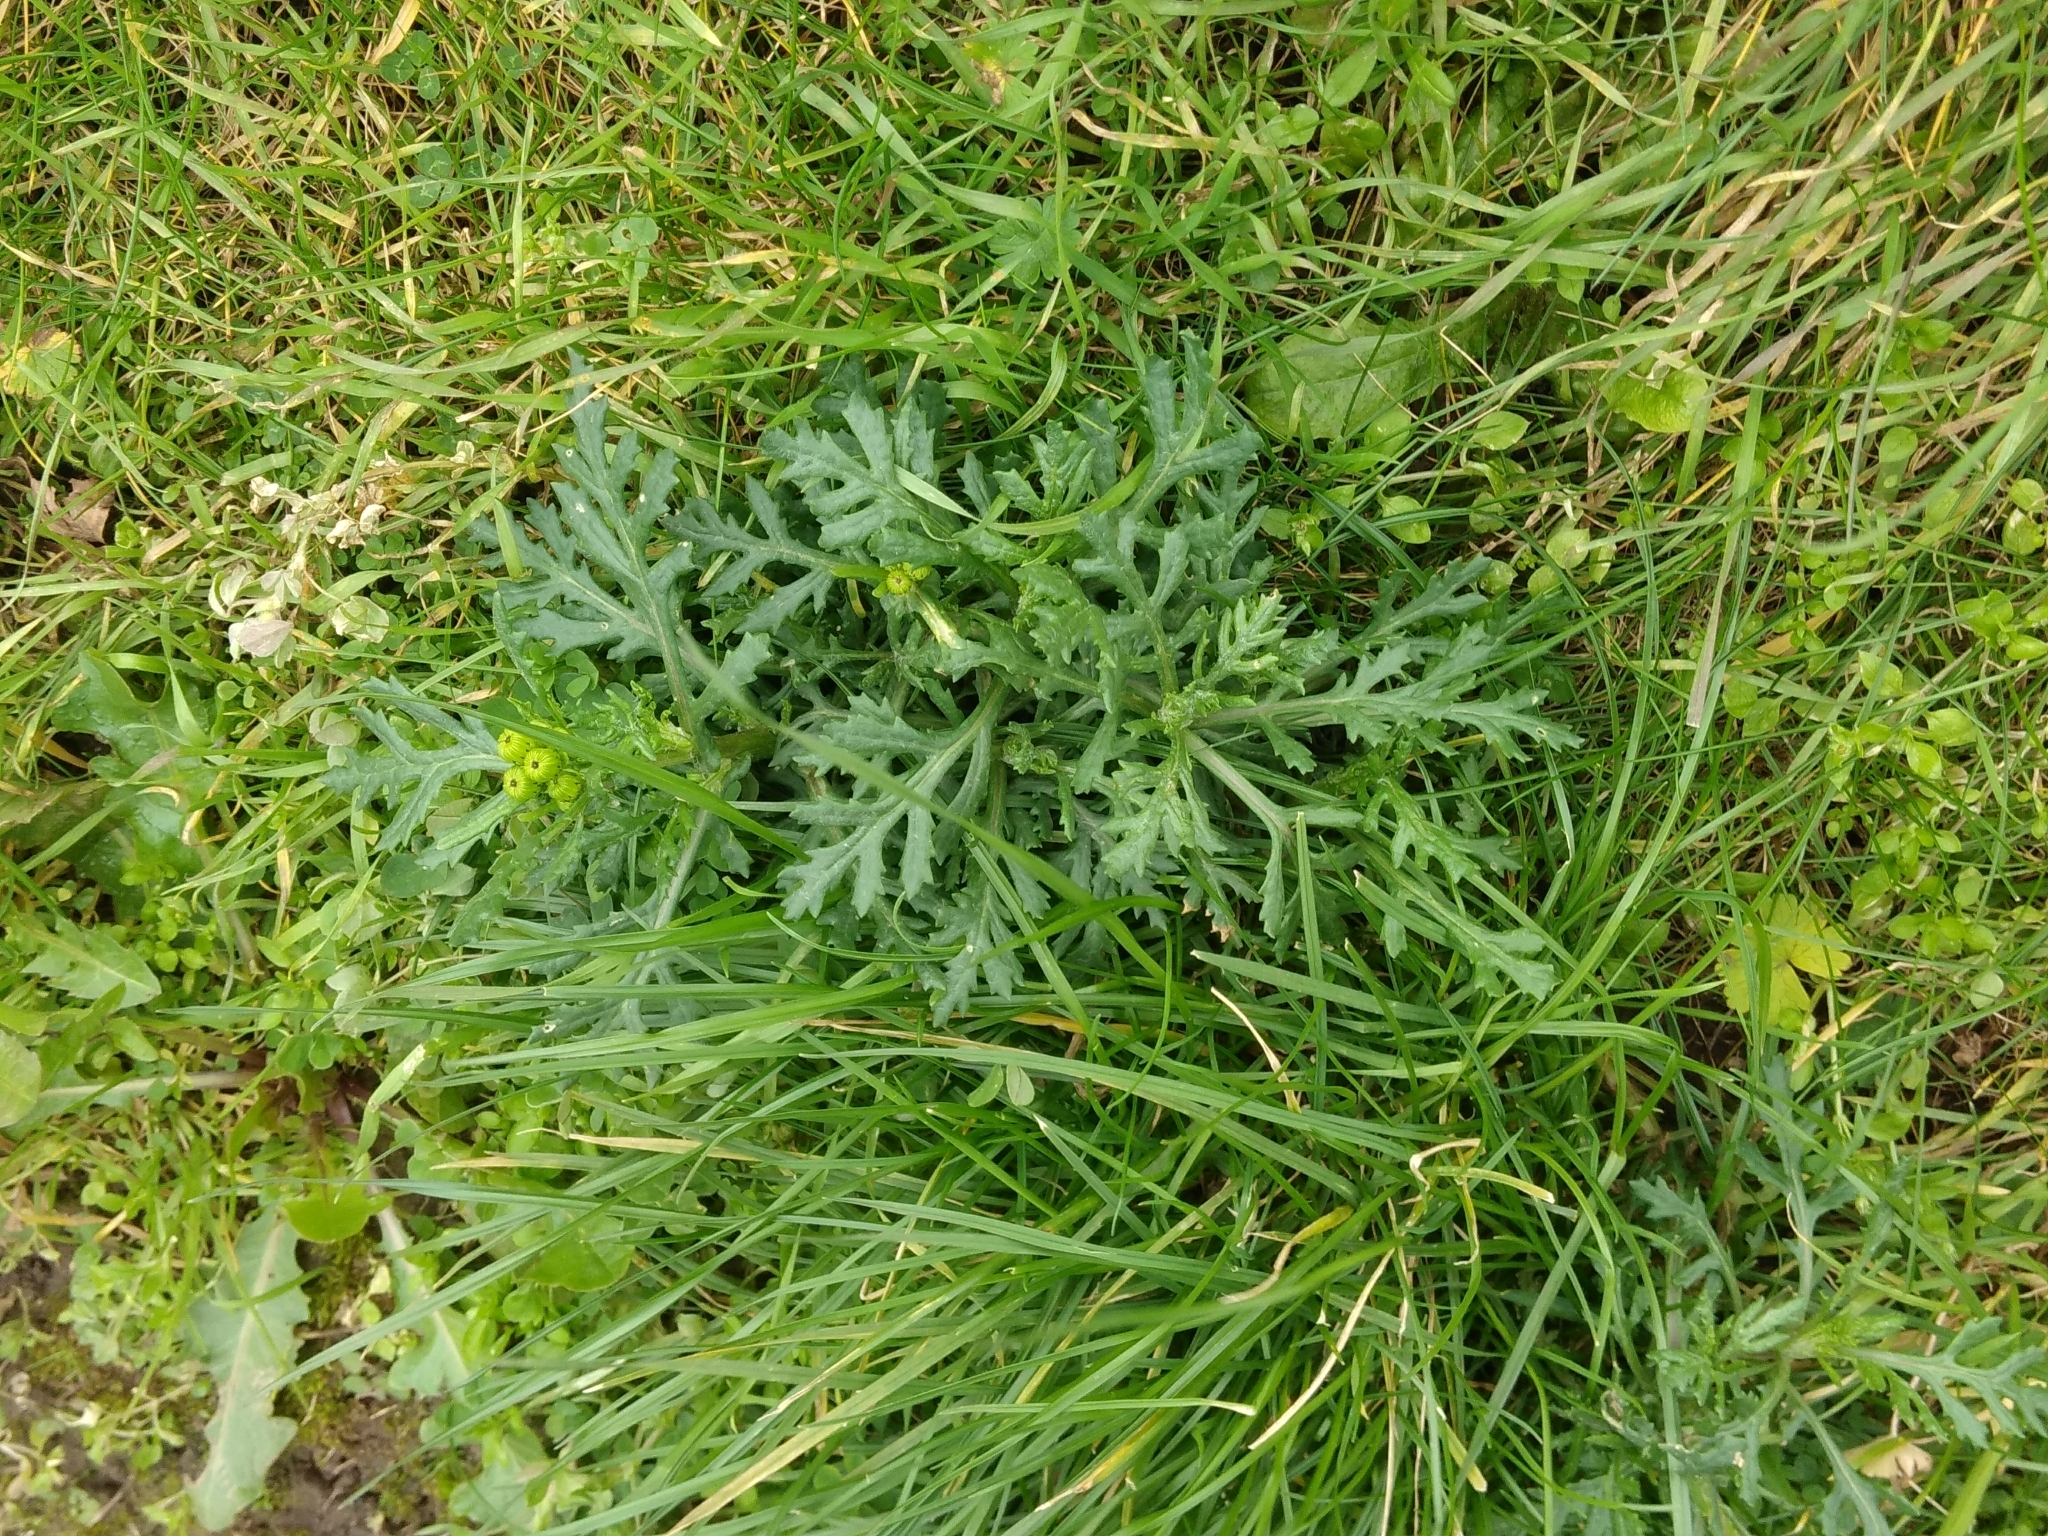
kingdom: Plantae
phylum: Tracheophyta
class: Magnoliopsida
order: Asterales
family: Asteraceae
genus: Senecio
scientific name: Senecio squalidus
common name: Oxford ragwort
